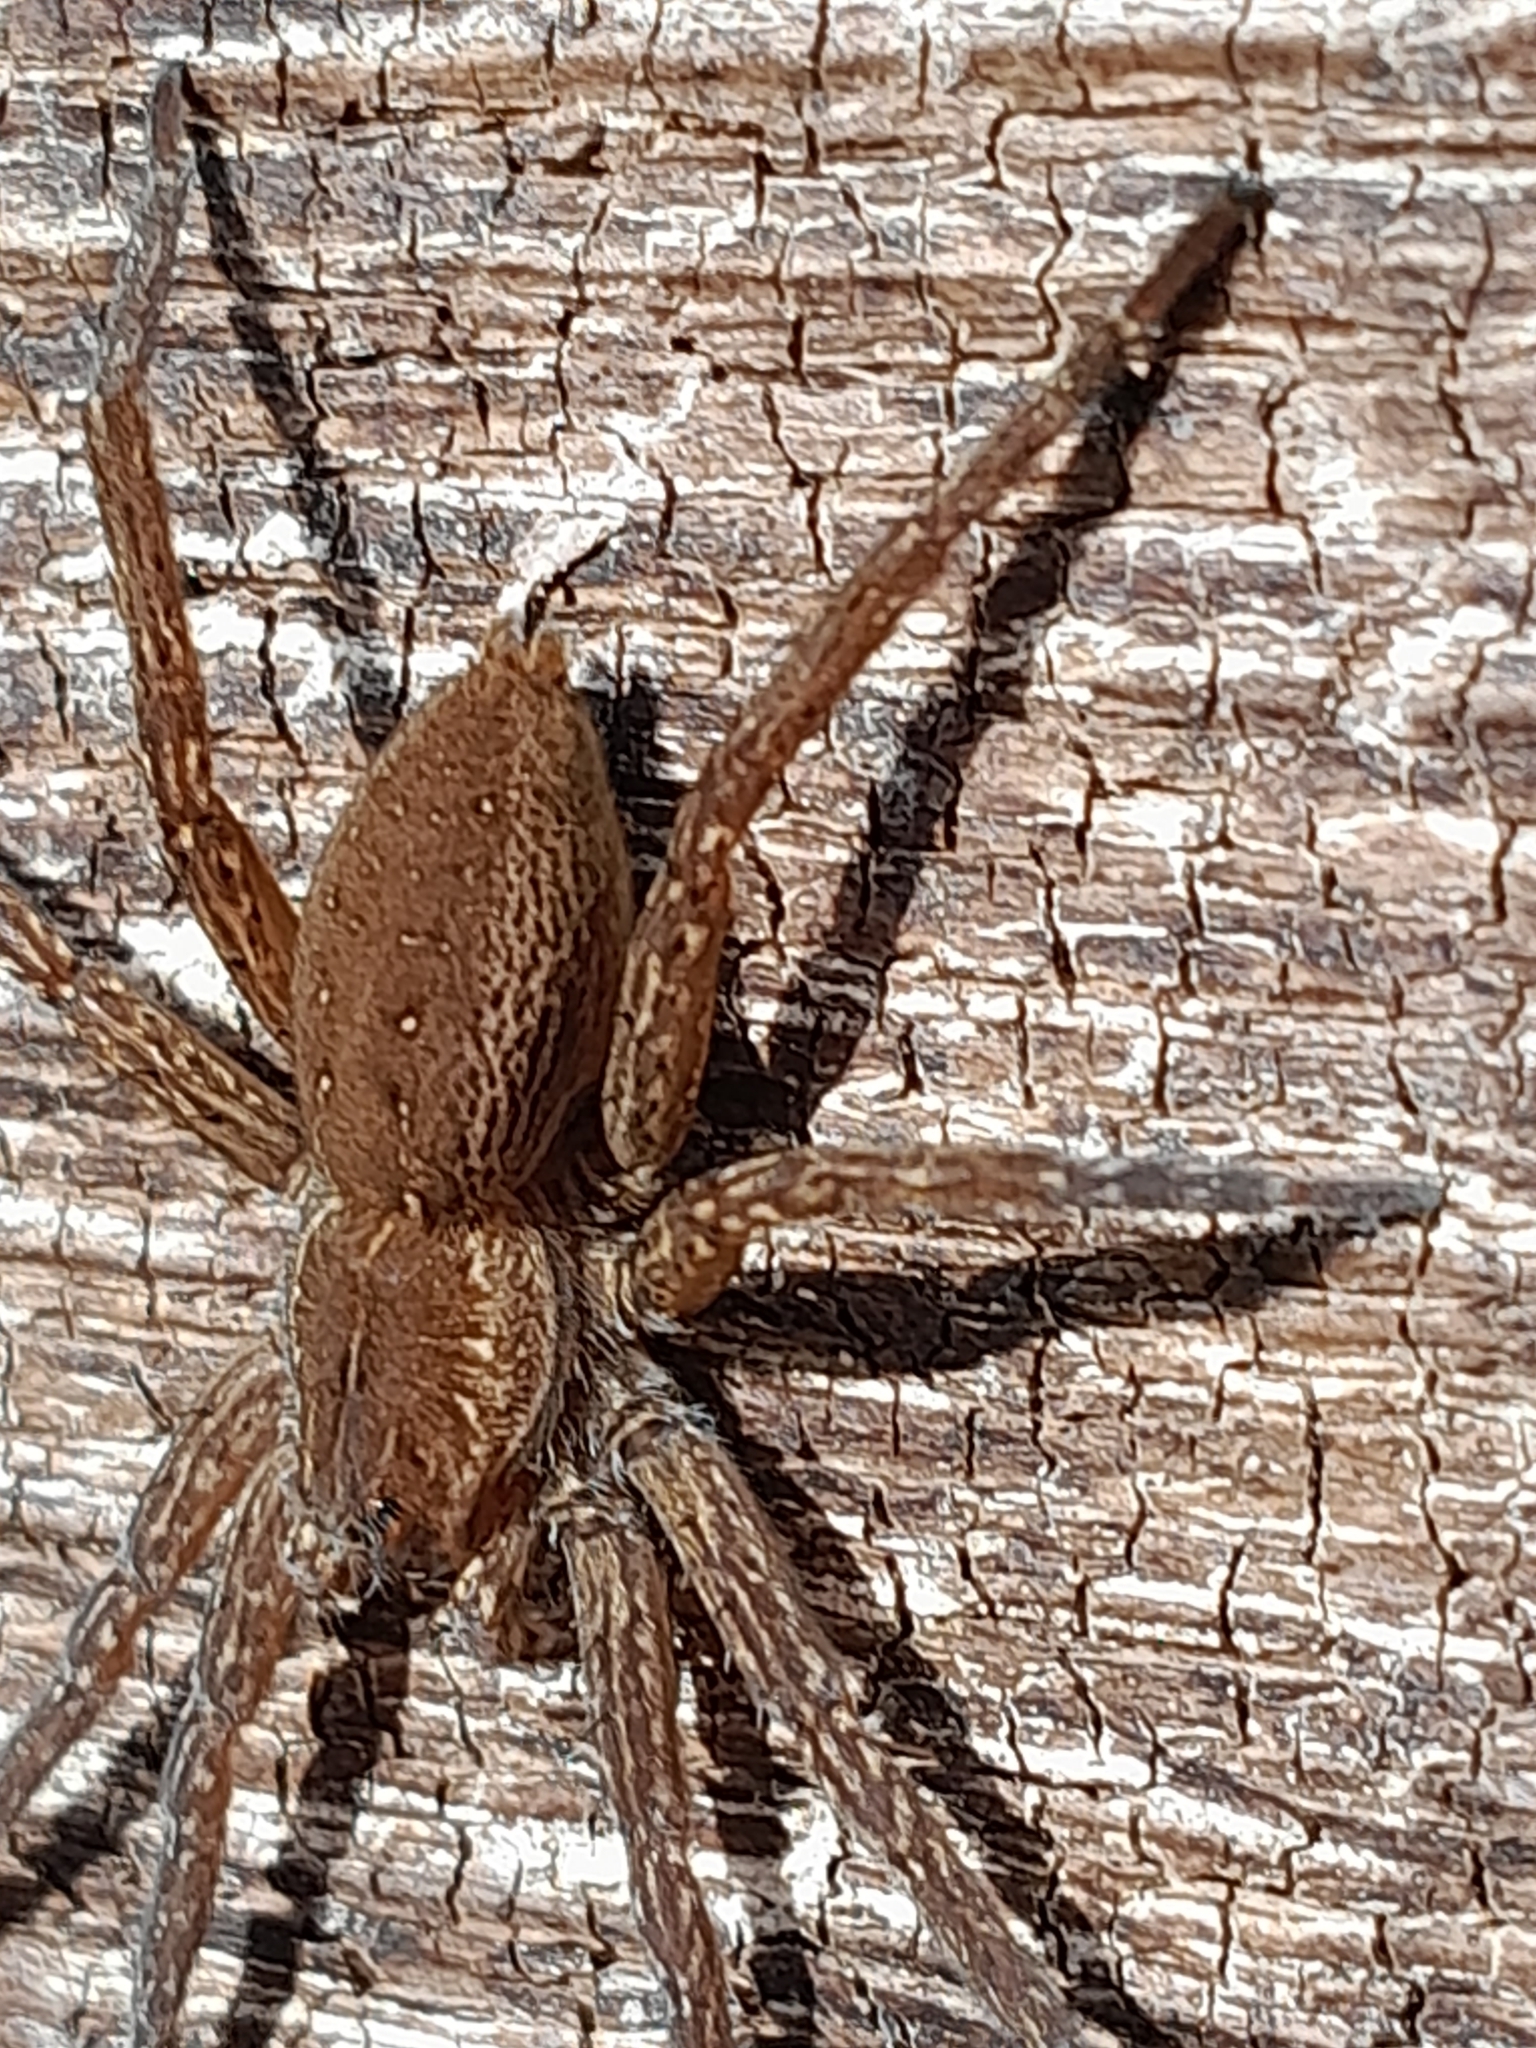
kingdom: Animalia
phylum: Arthropoda
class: Arachnida
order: Araneae
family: Pisauridae
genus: Dolomedes
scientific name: Dolomedes
